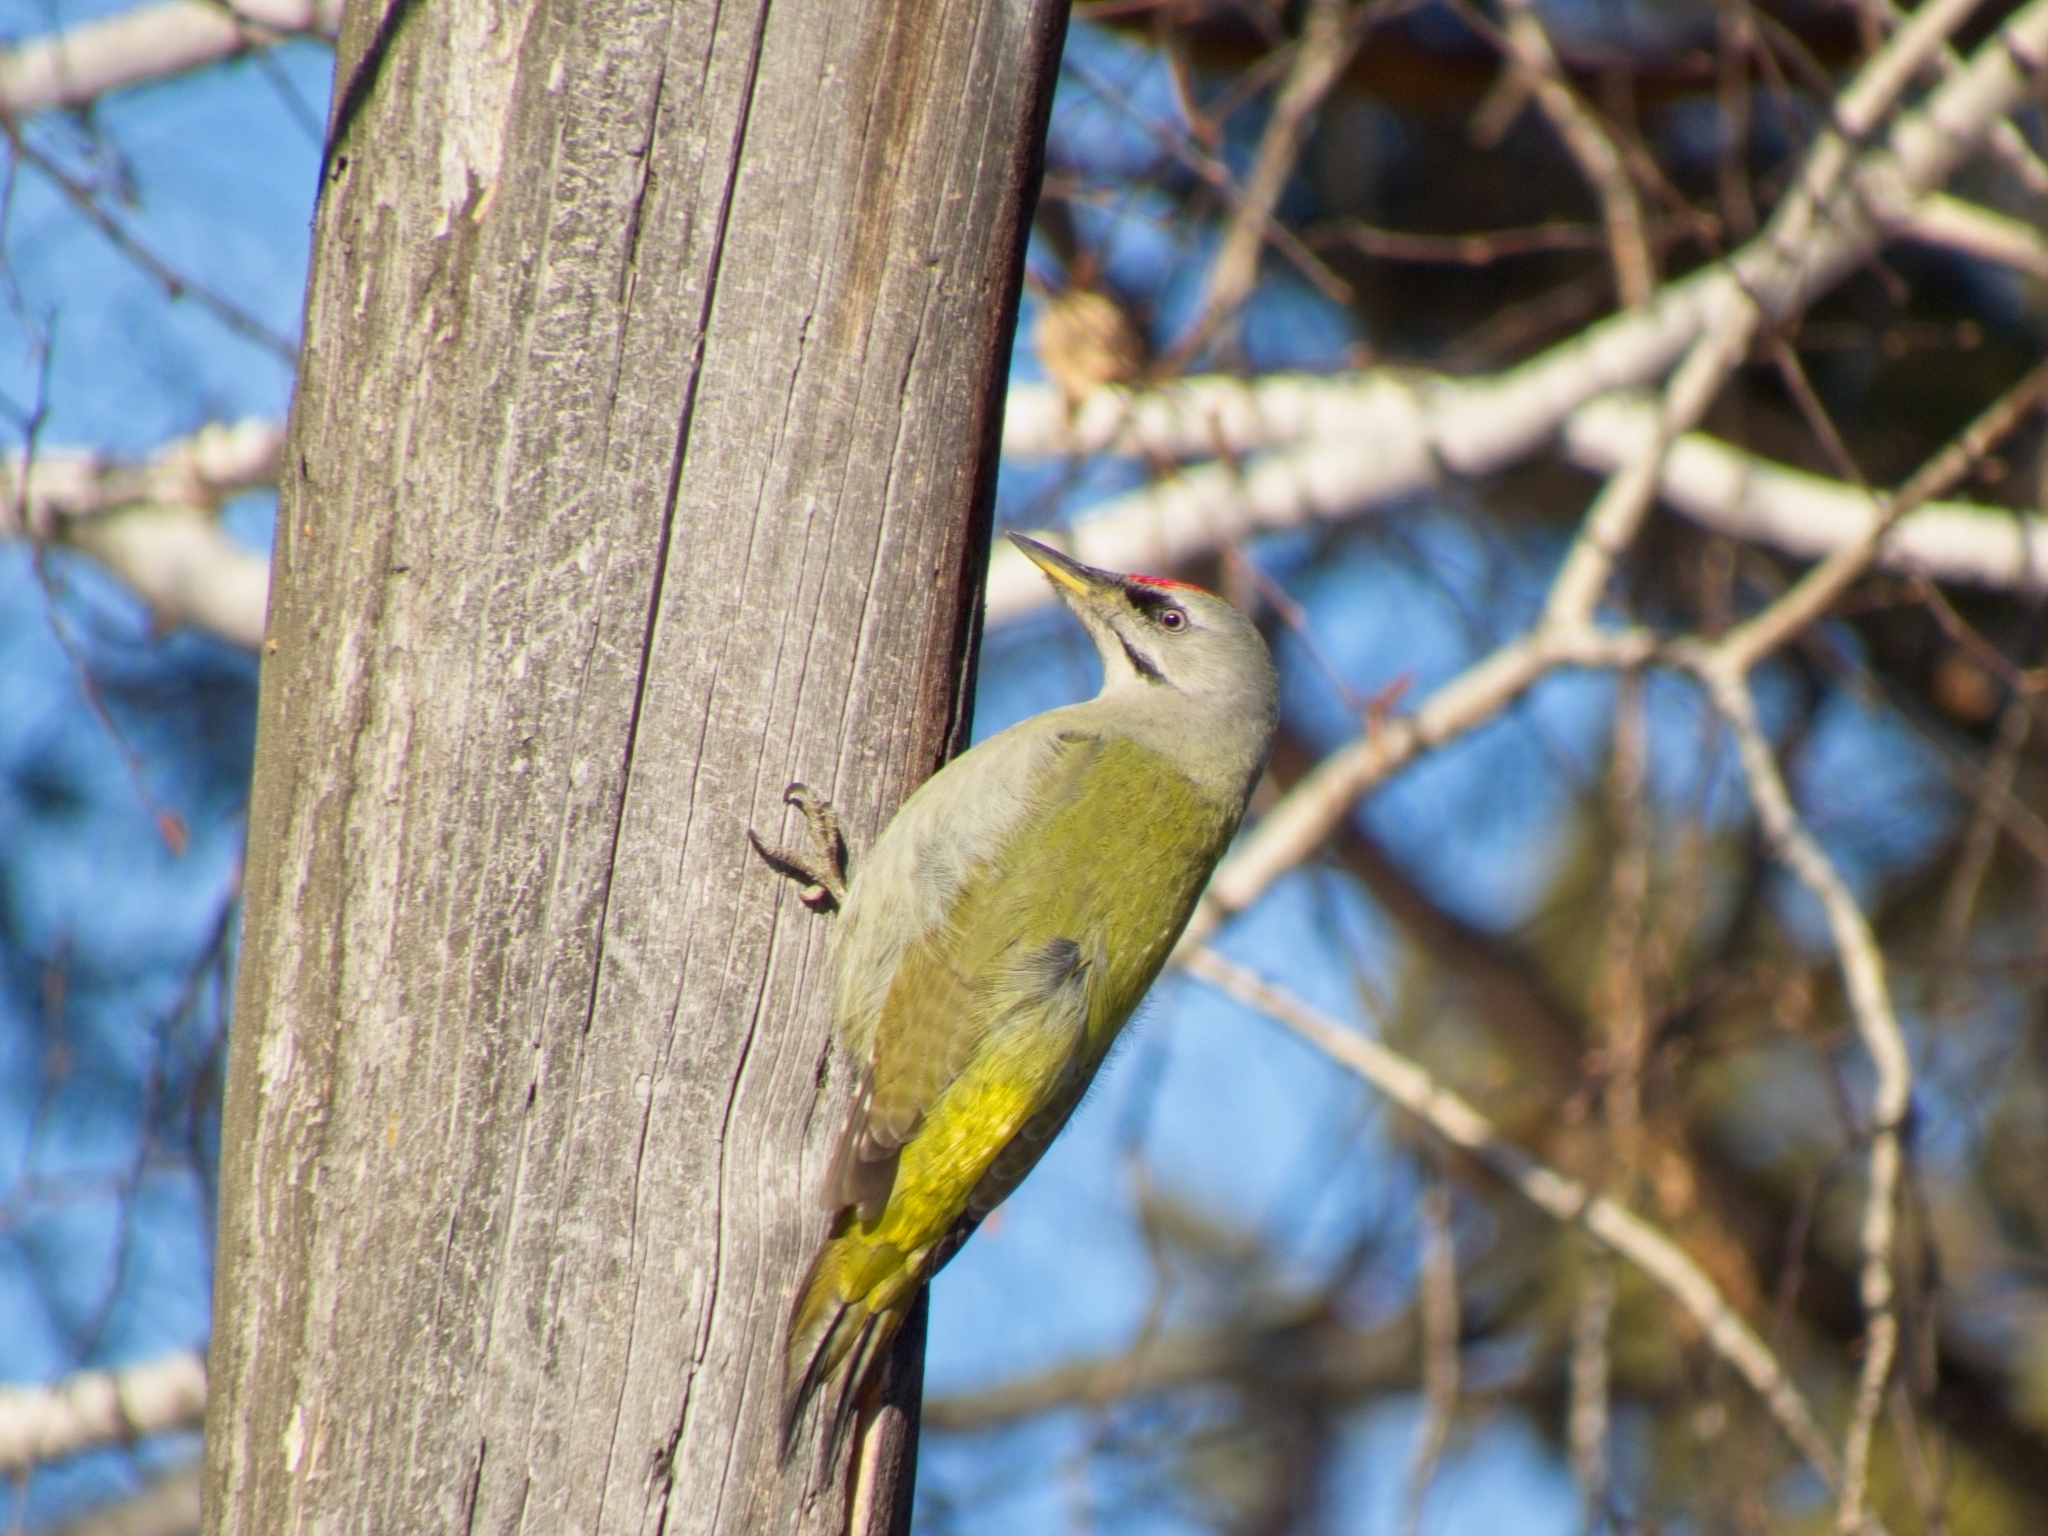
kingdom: Animalia
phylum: Chordata
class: Aves
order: Piciformes
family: Picidae
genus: Picus
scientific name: Picus canus
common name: Grey-headed woodpecker
